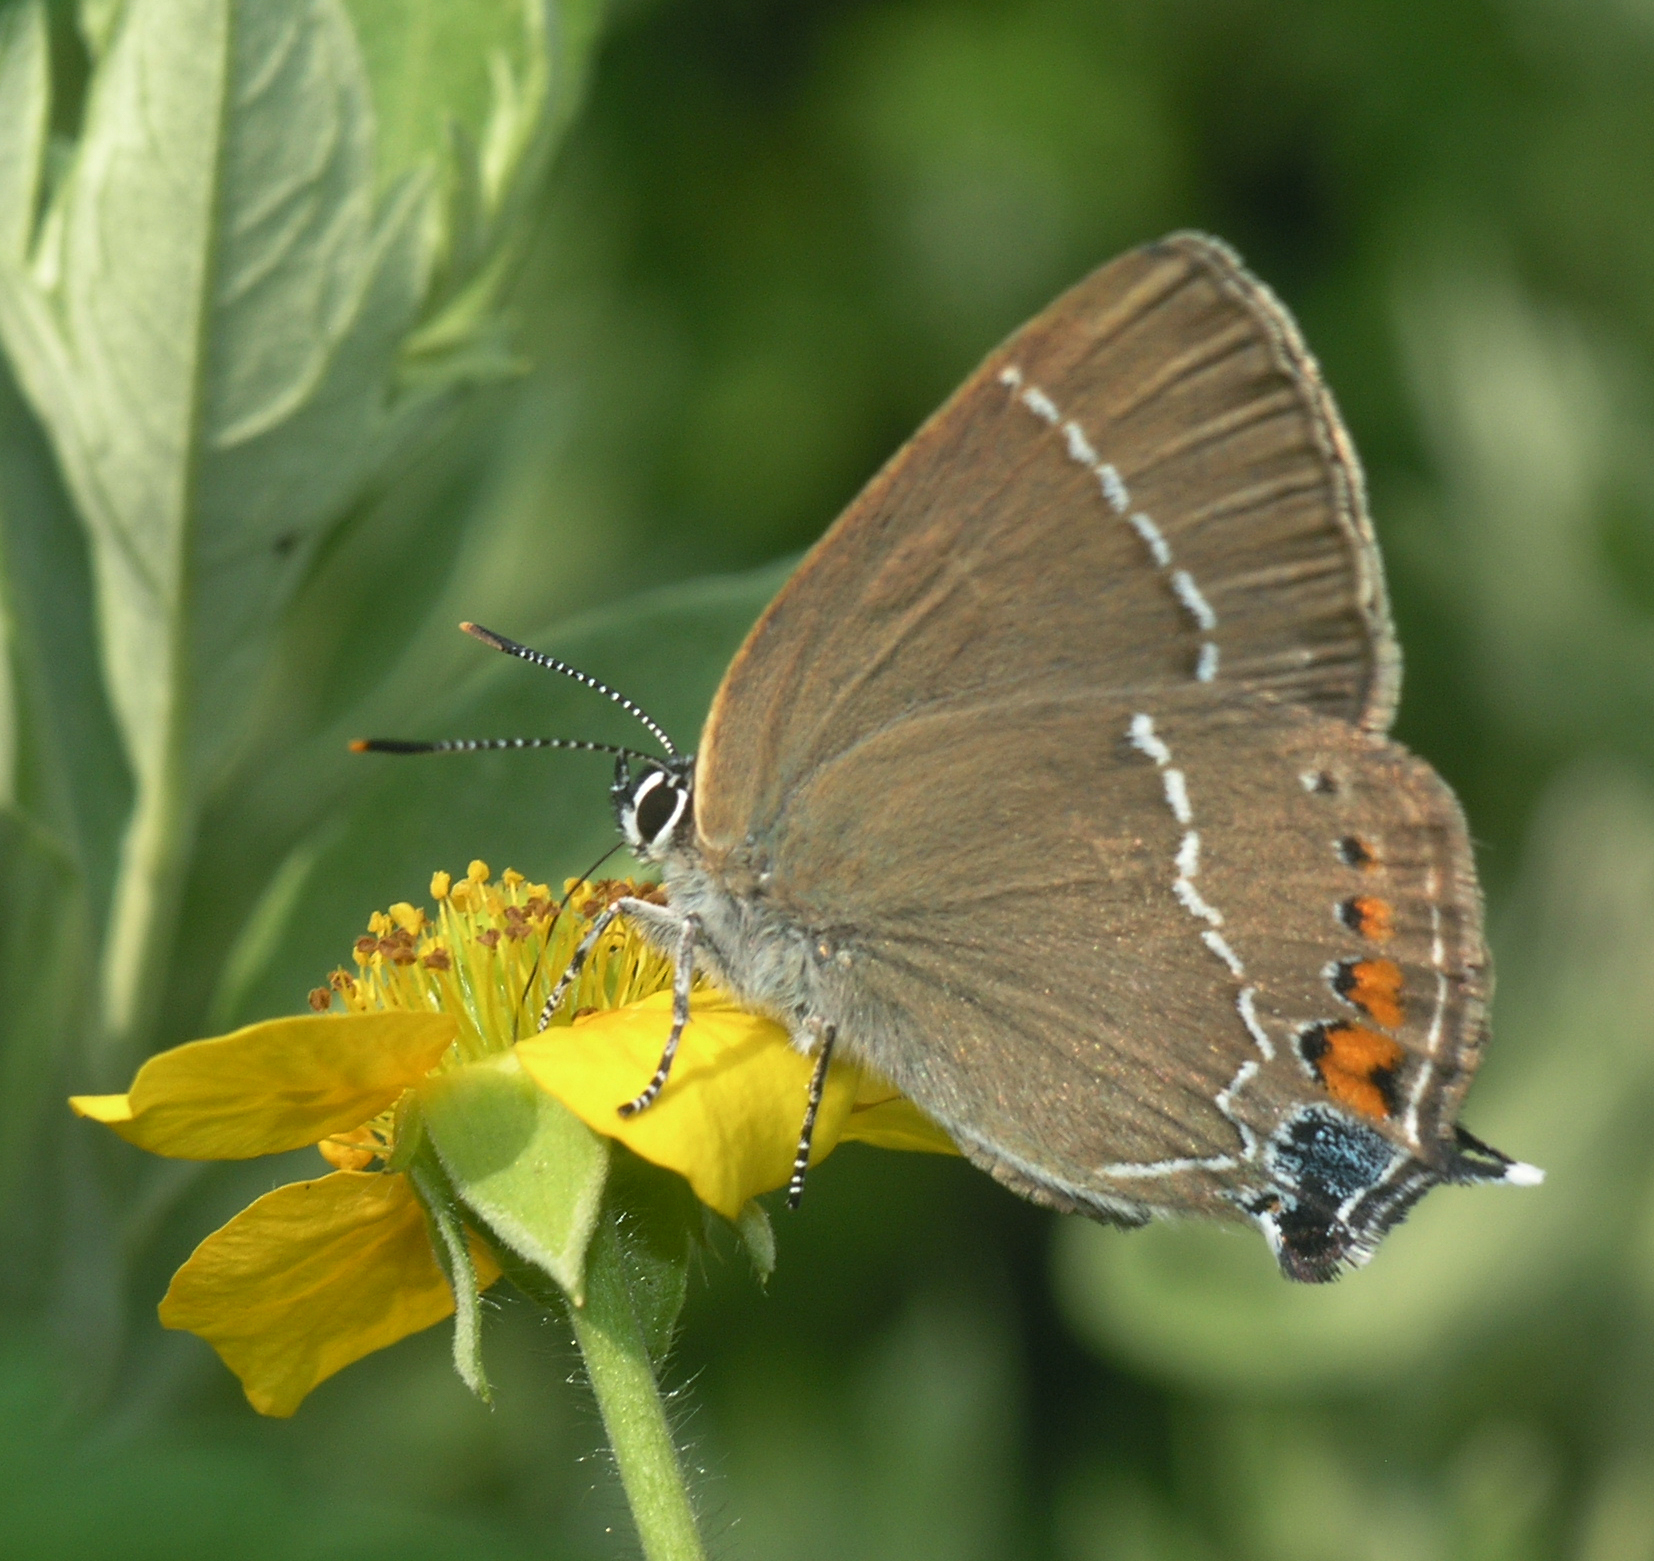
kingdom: Animalia
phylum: Arthropoda
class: Insecta
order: Lepidoptera
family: Lycaenidae
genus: Satyrium
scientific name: Satyrium
